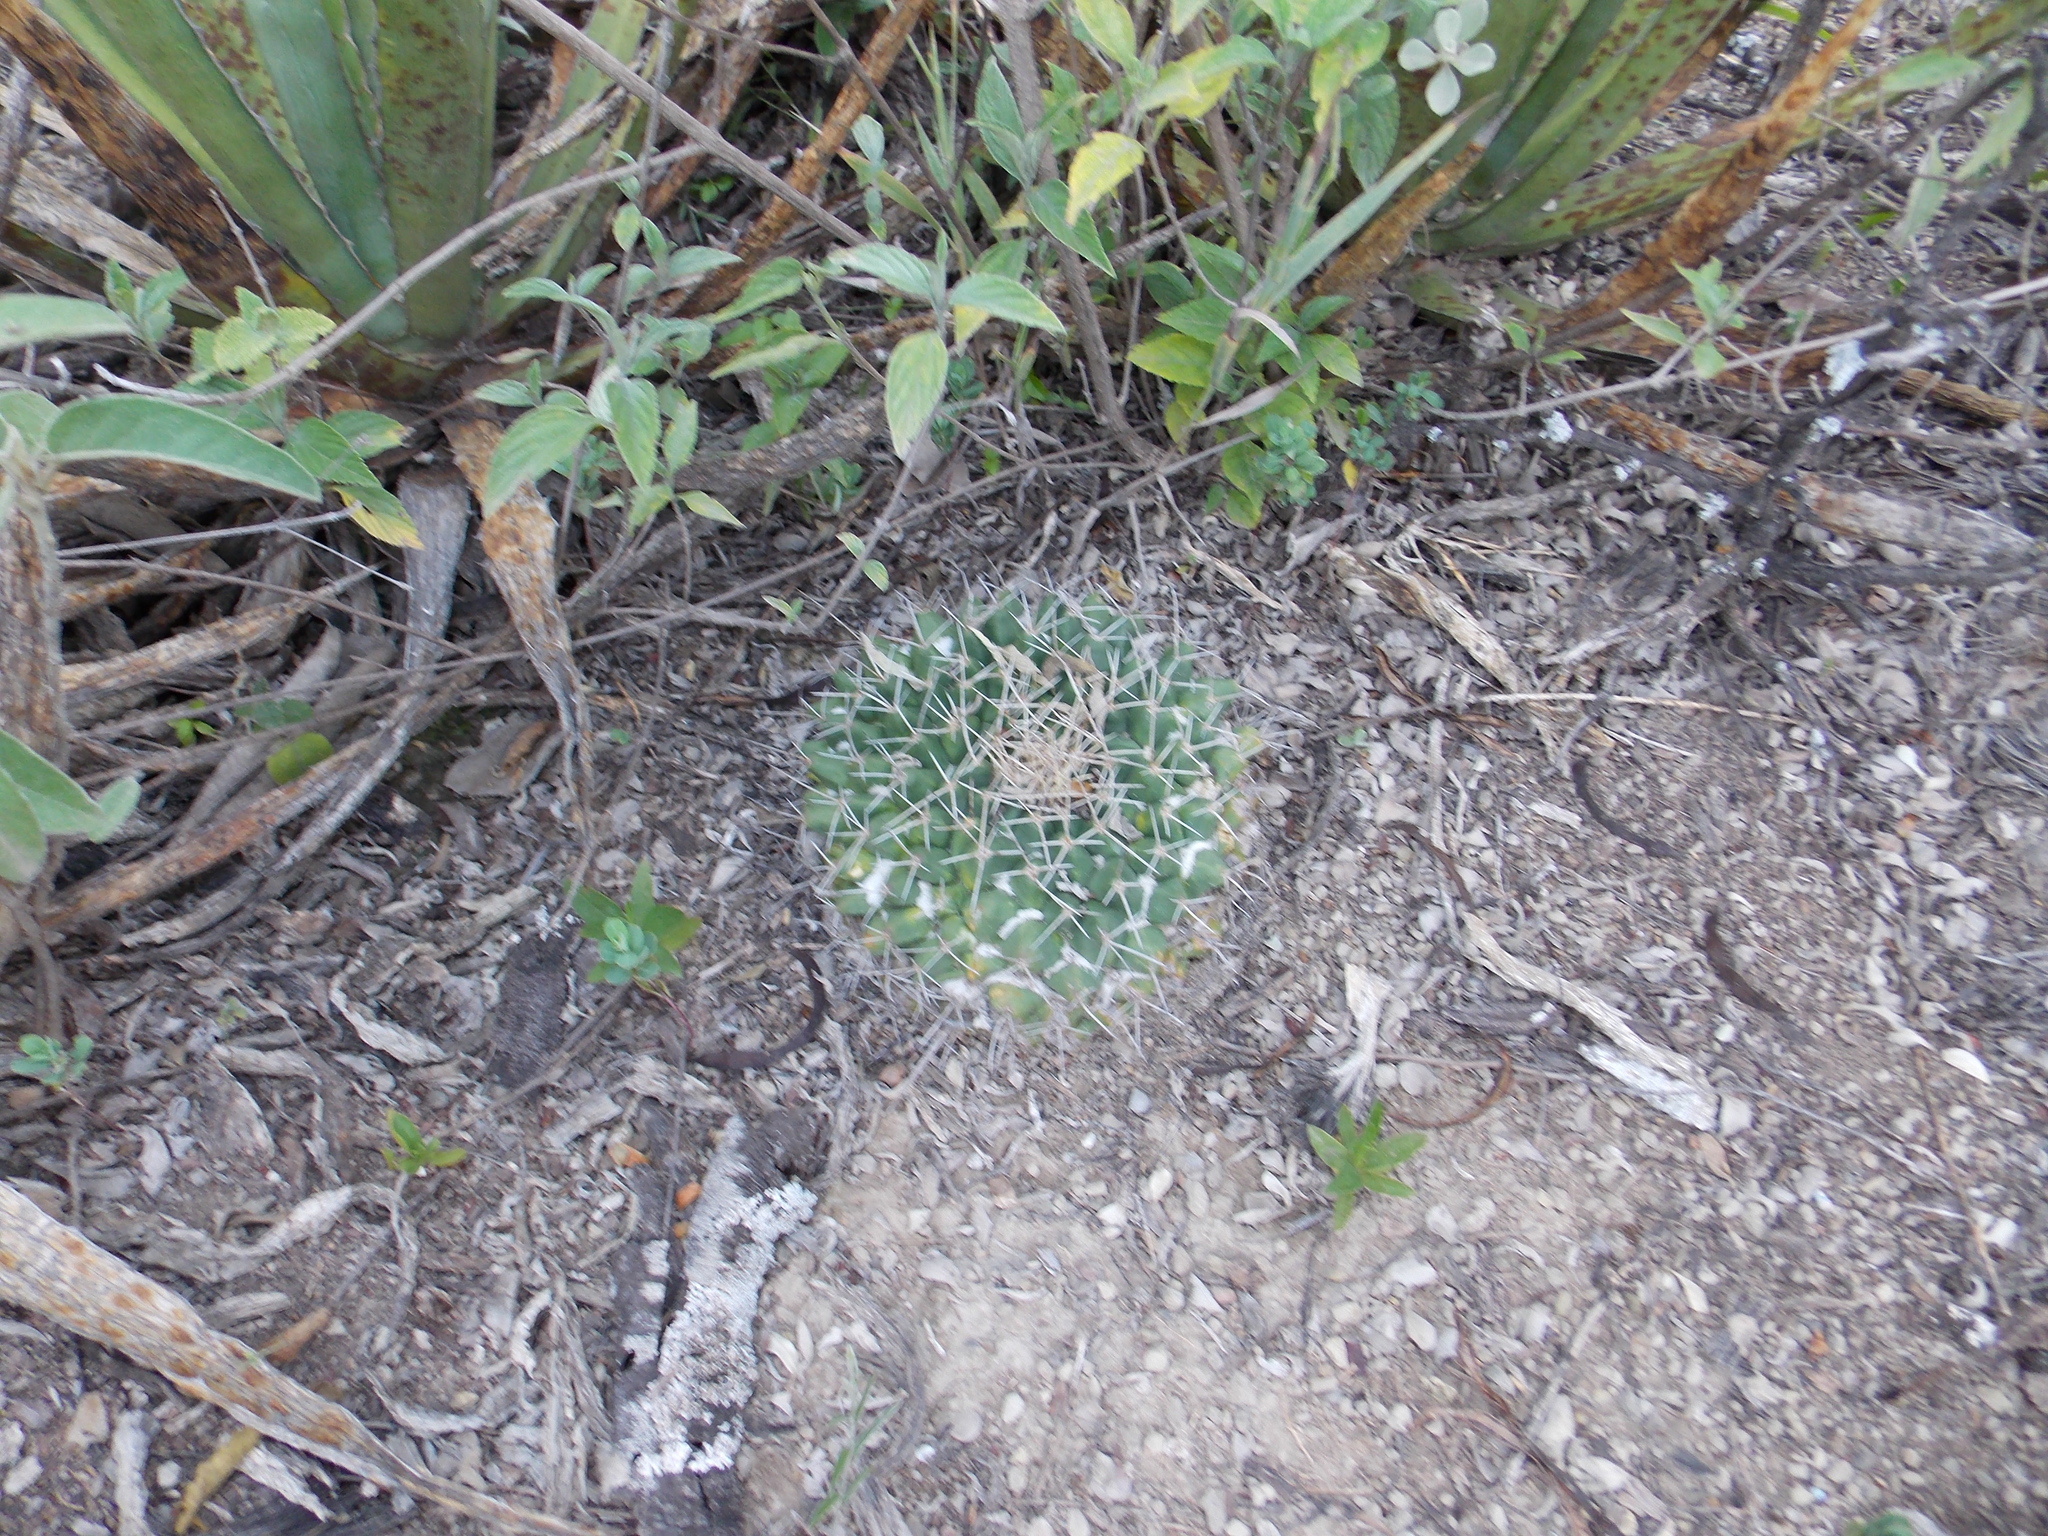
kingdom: Plantae
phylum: Tracheophyta
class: Magnoliopsida
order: Caryophyllales
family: Cactaceae
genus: Mammillaria
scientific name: Mammillaria winterae
